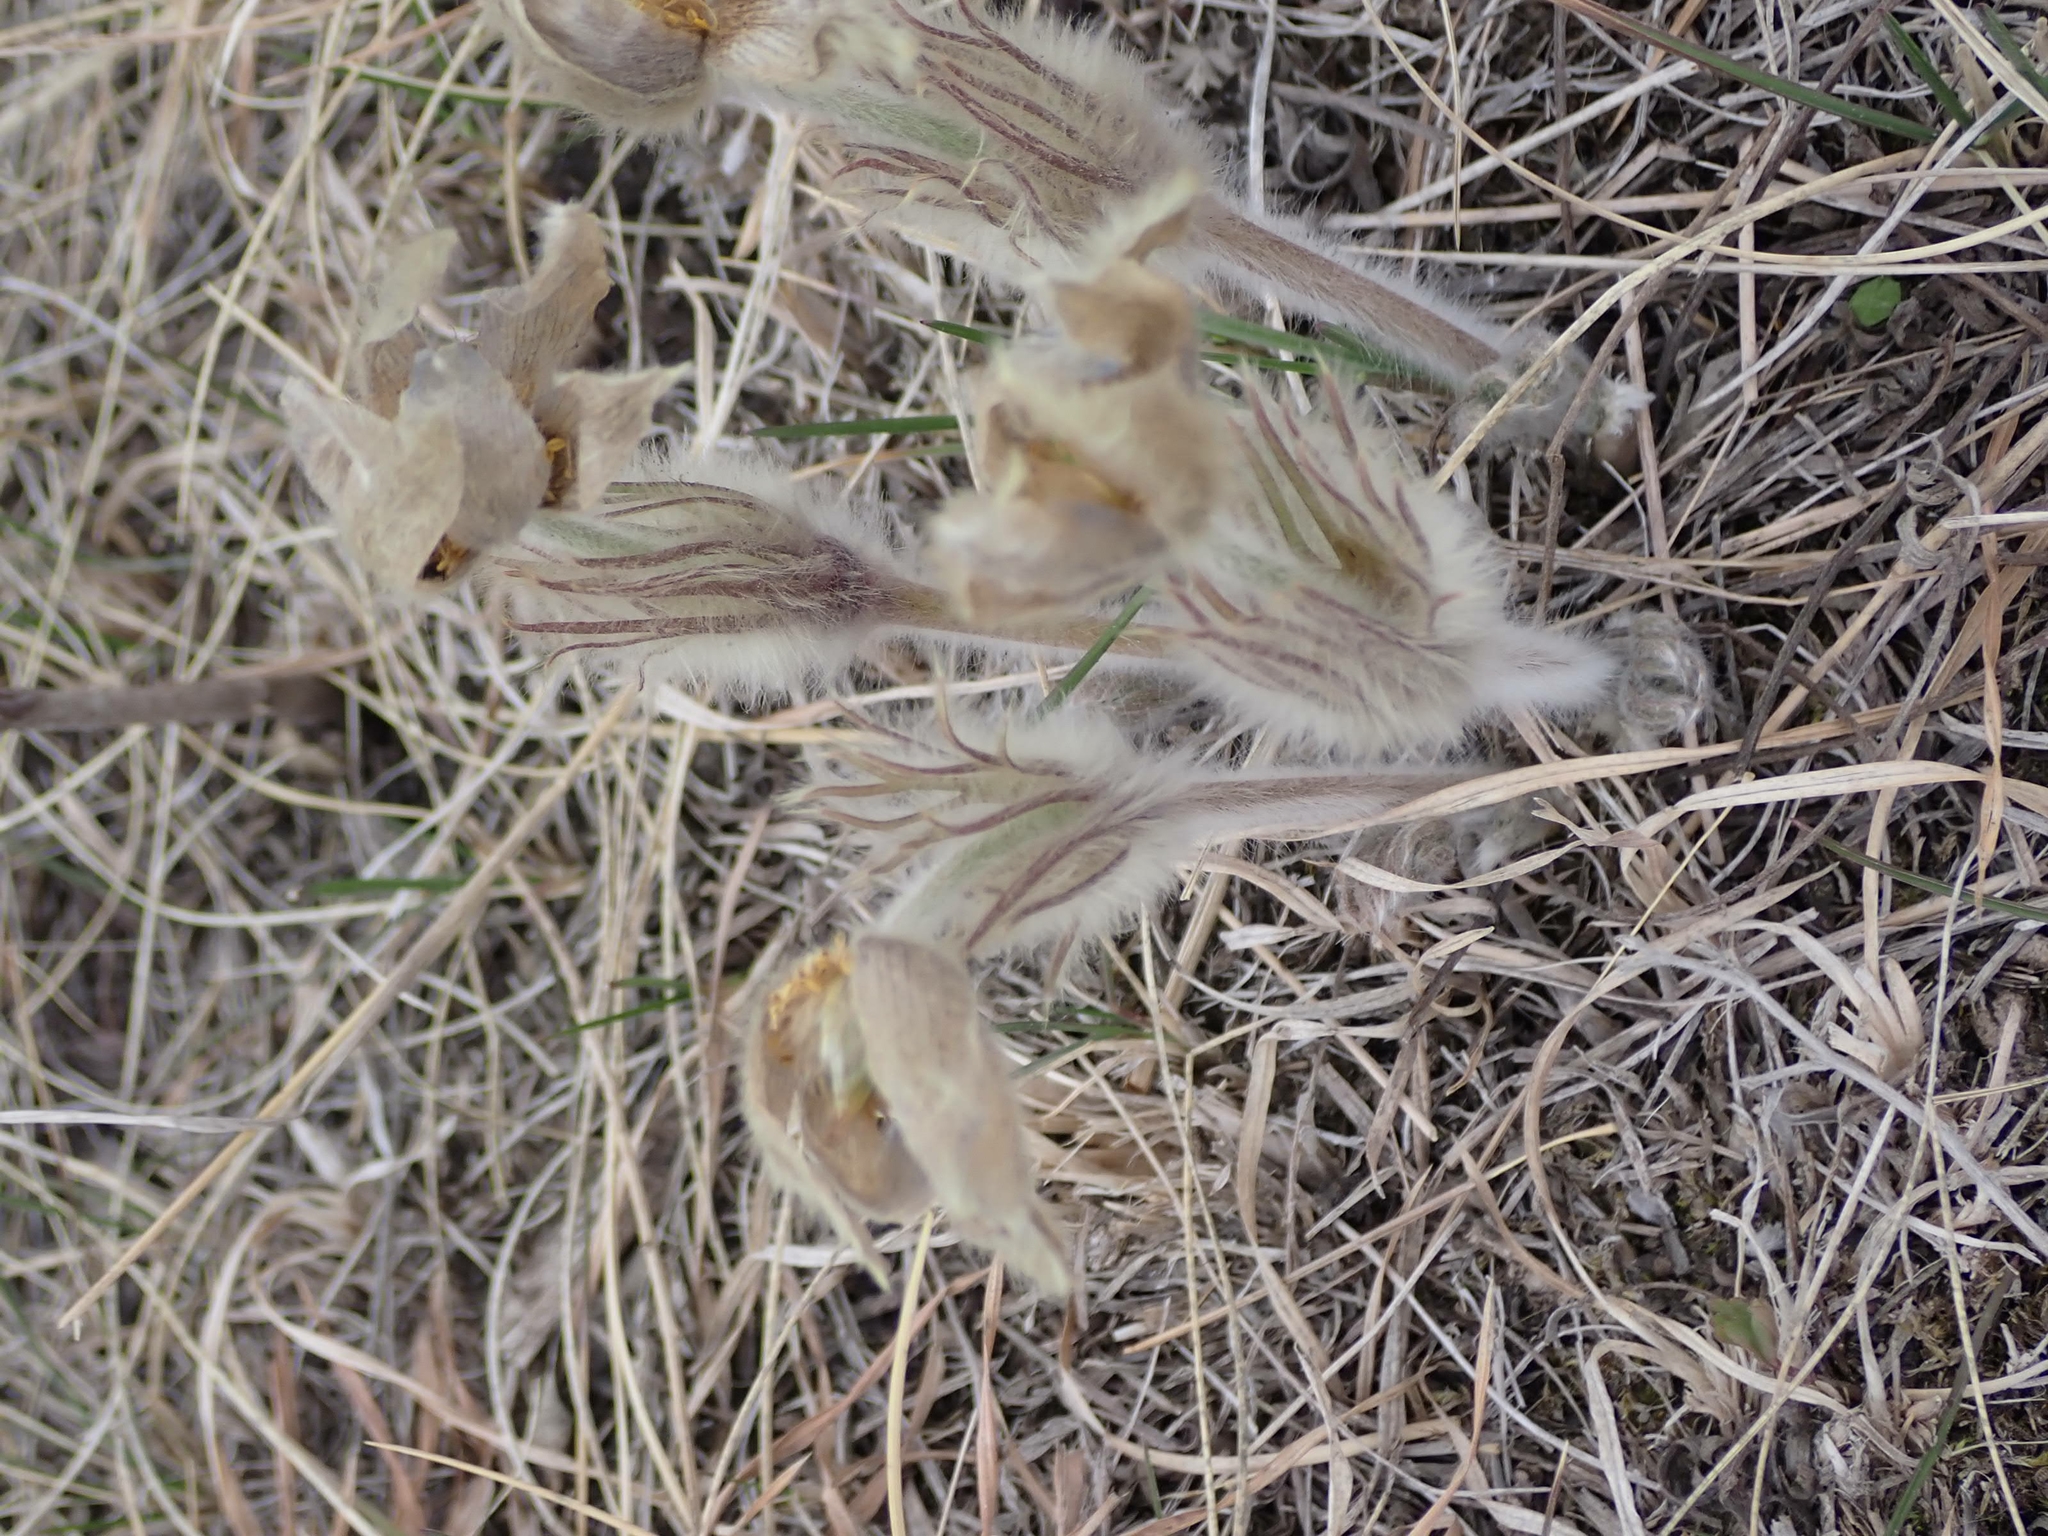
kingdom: Plantae
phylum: Tracheophyta
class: Magnoliopsida
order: Ranunculales
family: Ranunculaceae
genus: Pulsatilla
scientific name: Pulsatilla nuttalliana
